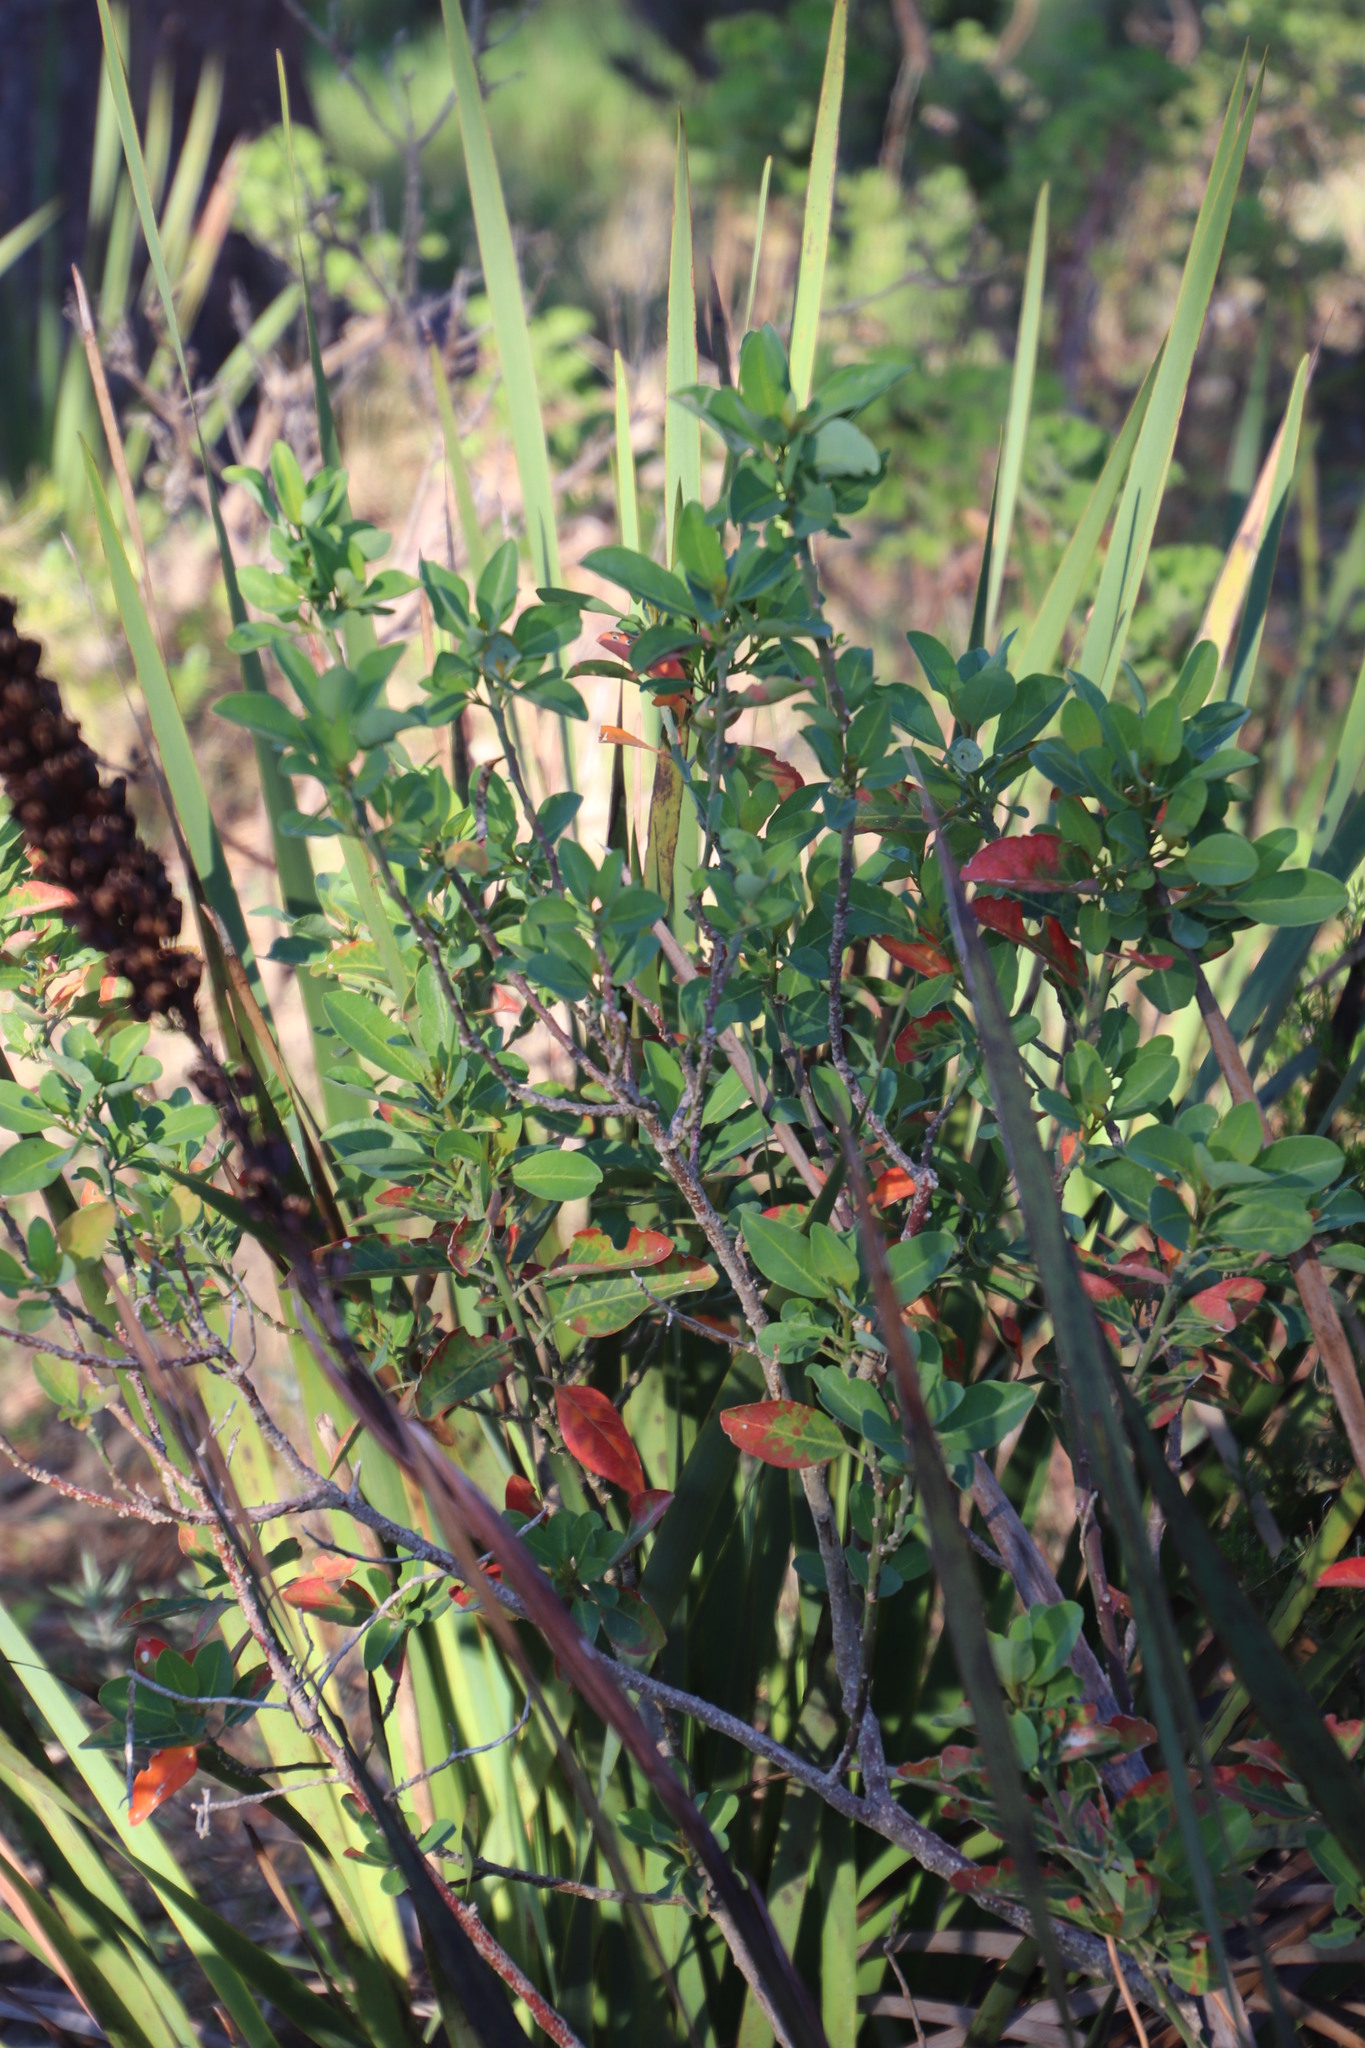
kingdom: Plantae
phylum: Tracheophyta
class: Magnoliopsida
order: Malpighiales
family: Peraceae
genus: Clutia
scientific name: Clutia pulchella
